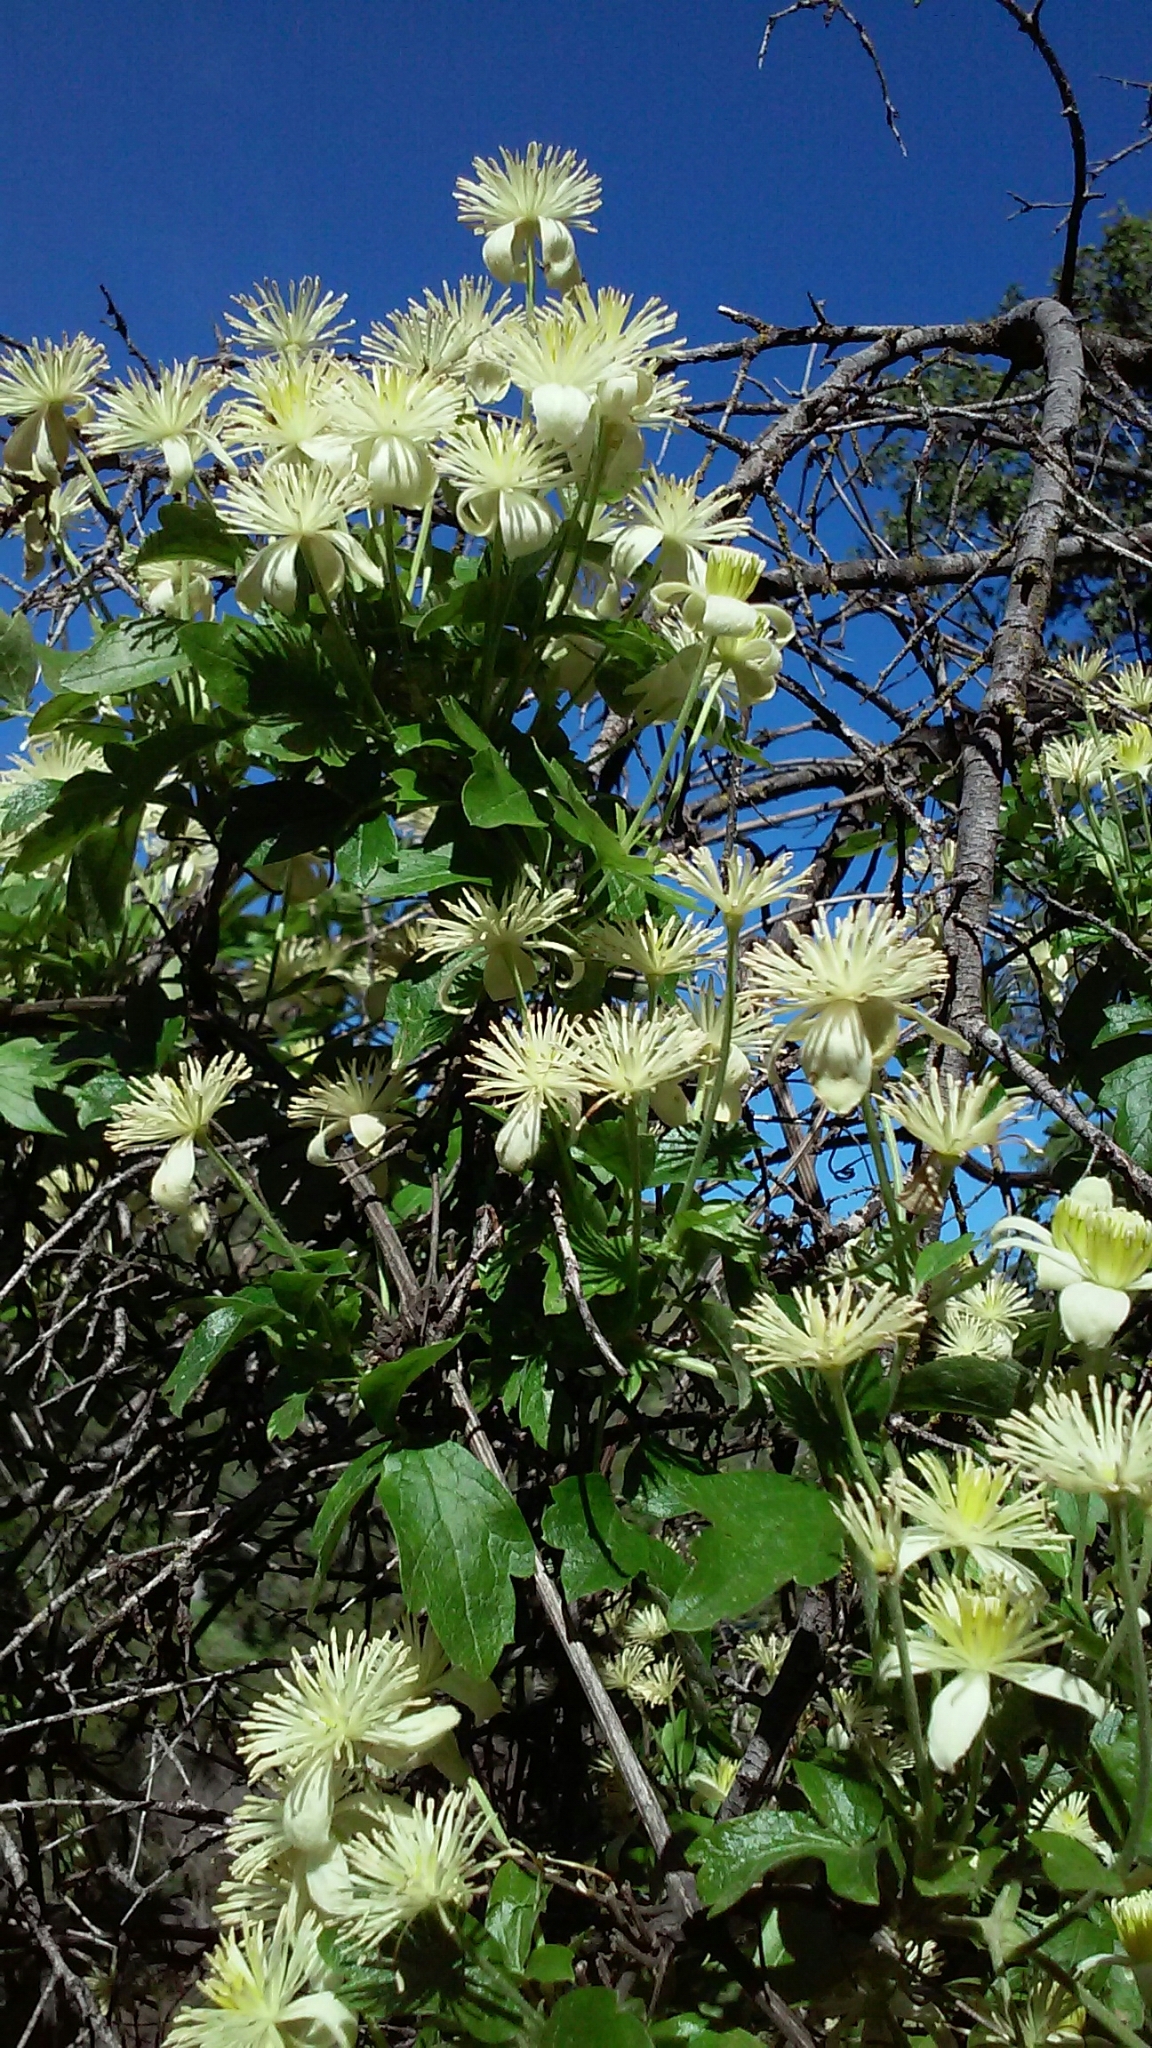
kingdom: Plantae
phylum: Tracheophyta
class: Magnoliopsida
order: Ranunculales
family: Ranunculaceae
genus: Clematis
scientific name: Clematis lasiantha
